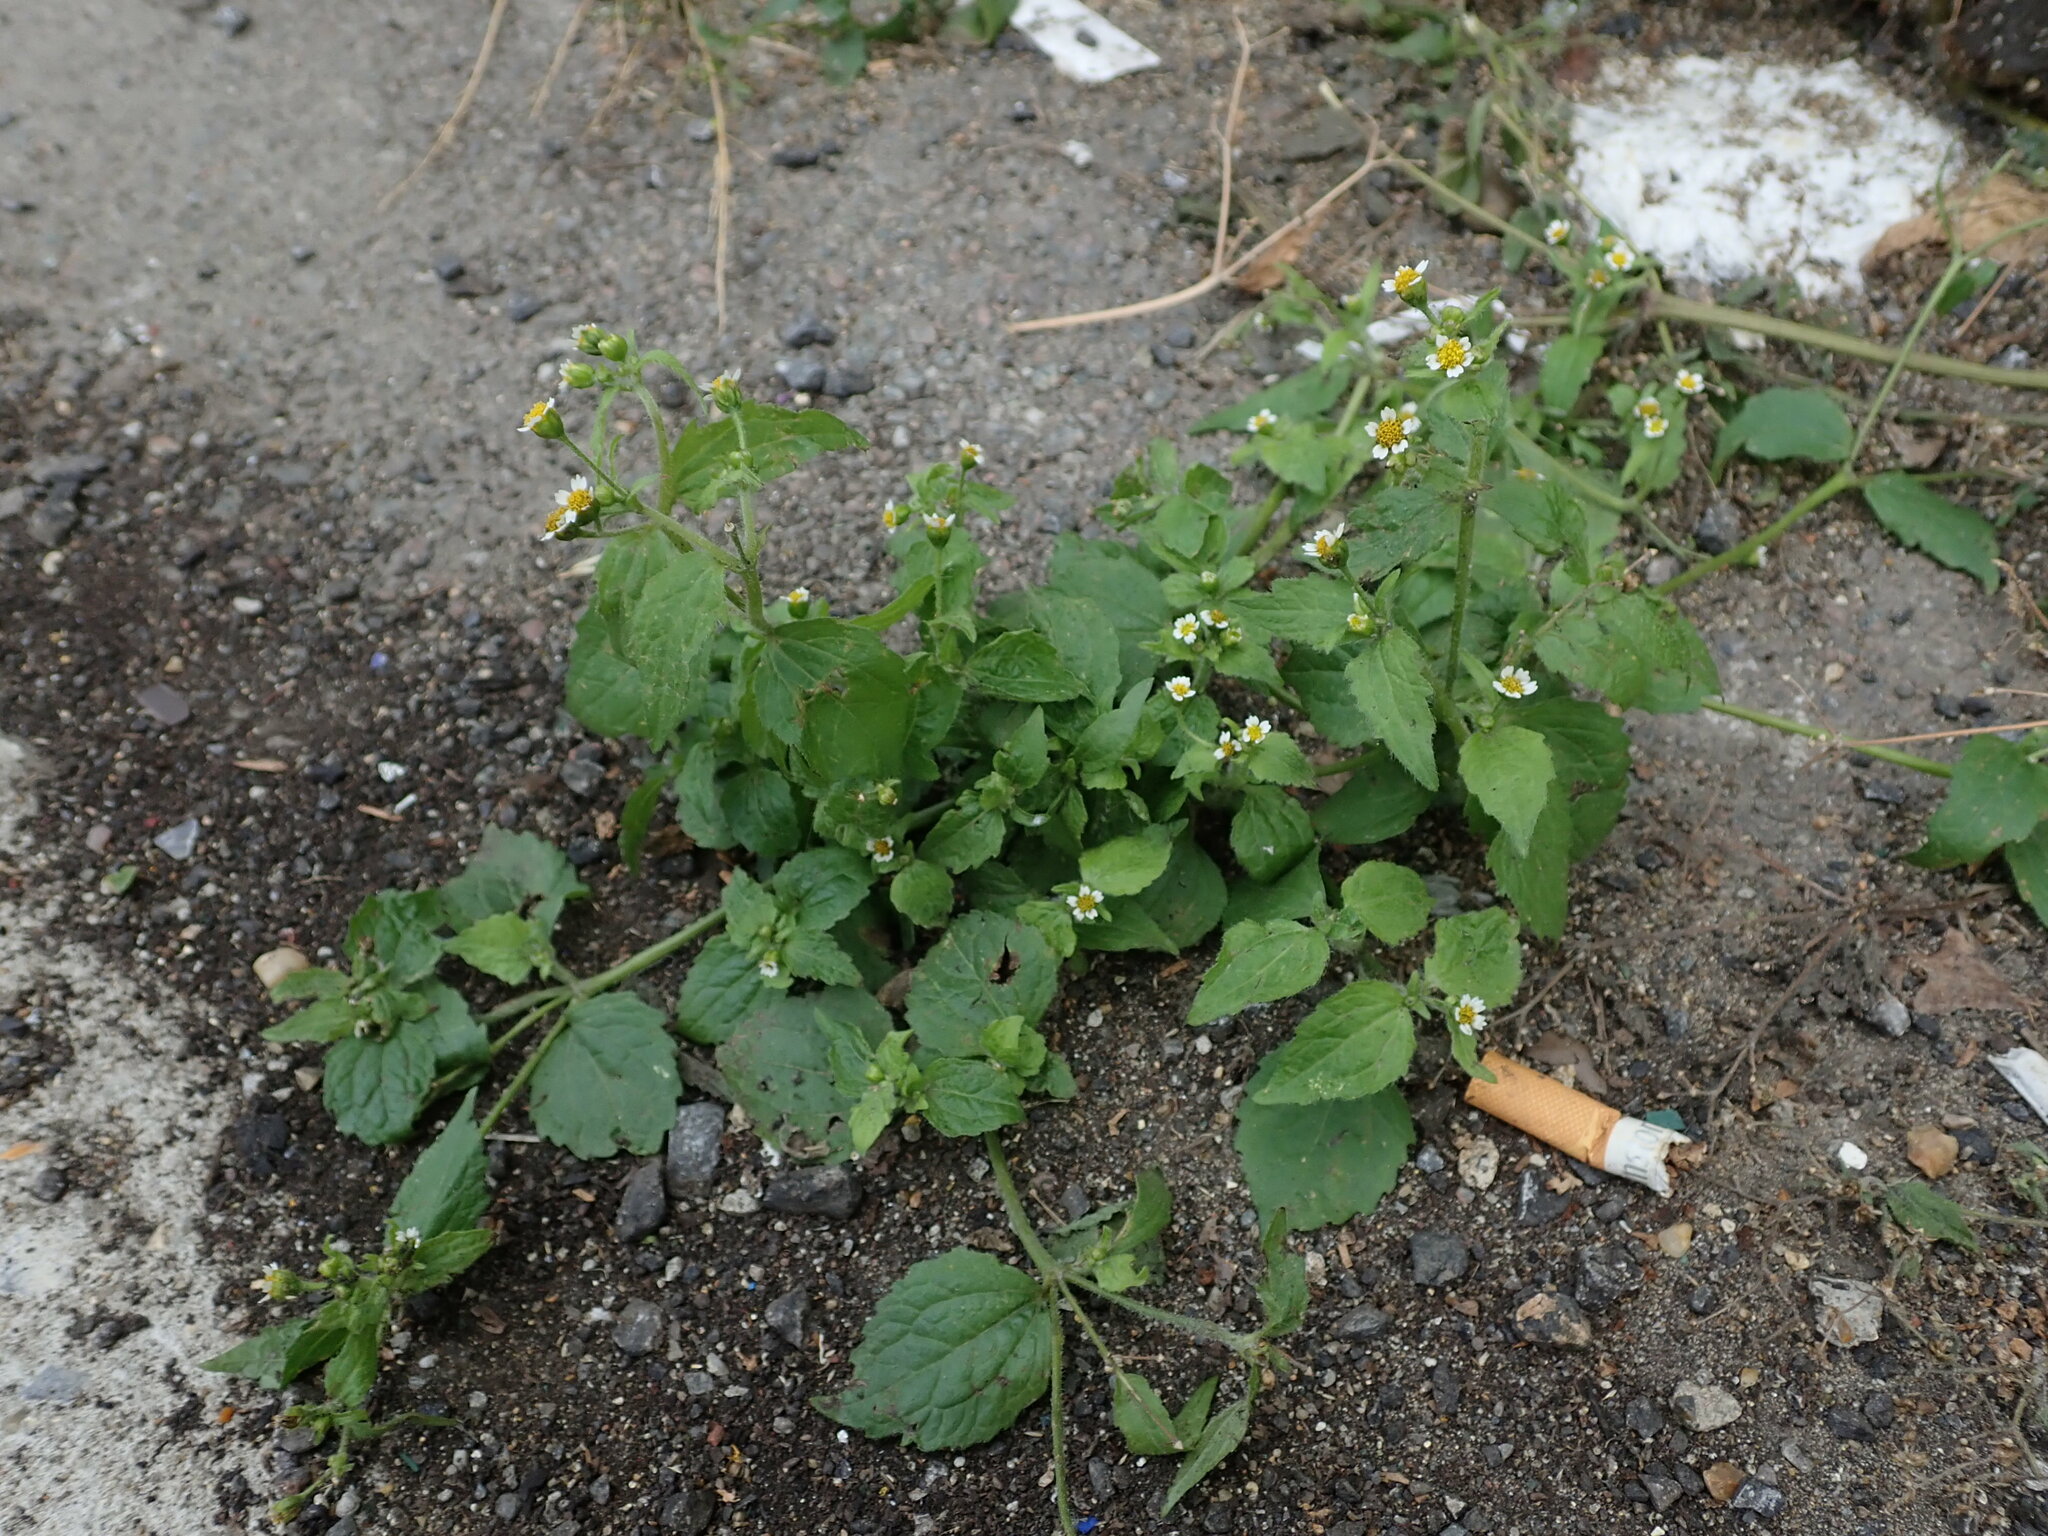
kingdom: Plantae
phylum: Tracheophyta
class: Magnoliopsida
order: Asterales
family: Asteraceae
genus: Galinsoga
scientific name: Galinsoga quadriradiata
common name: Shaggy soldier
